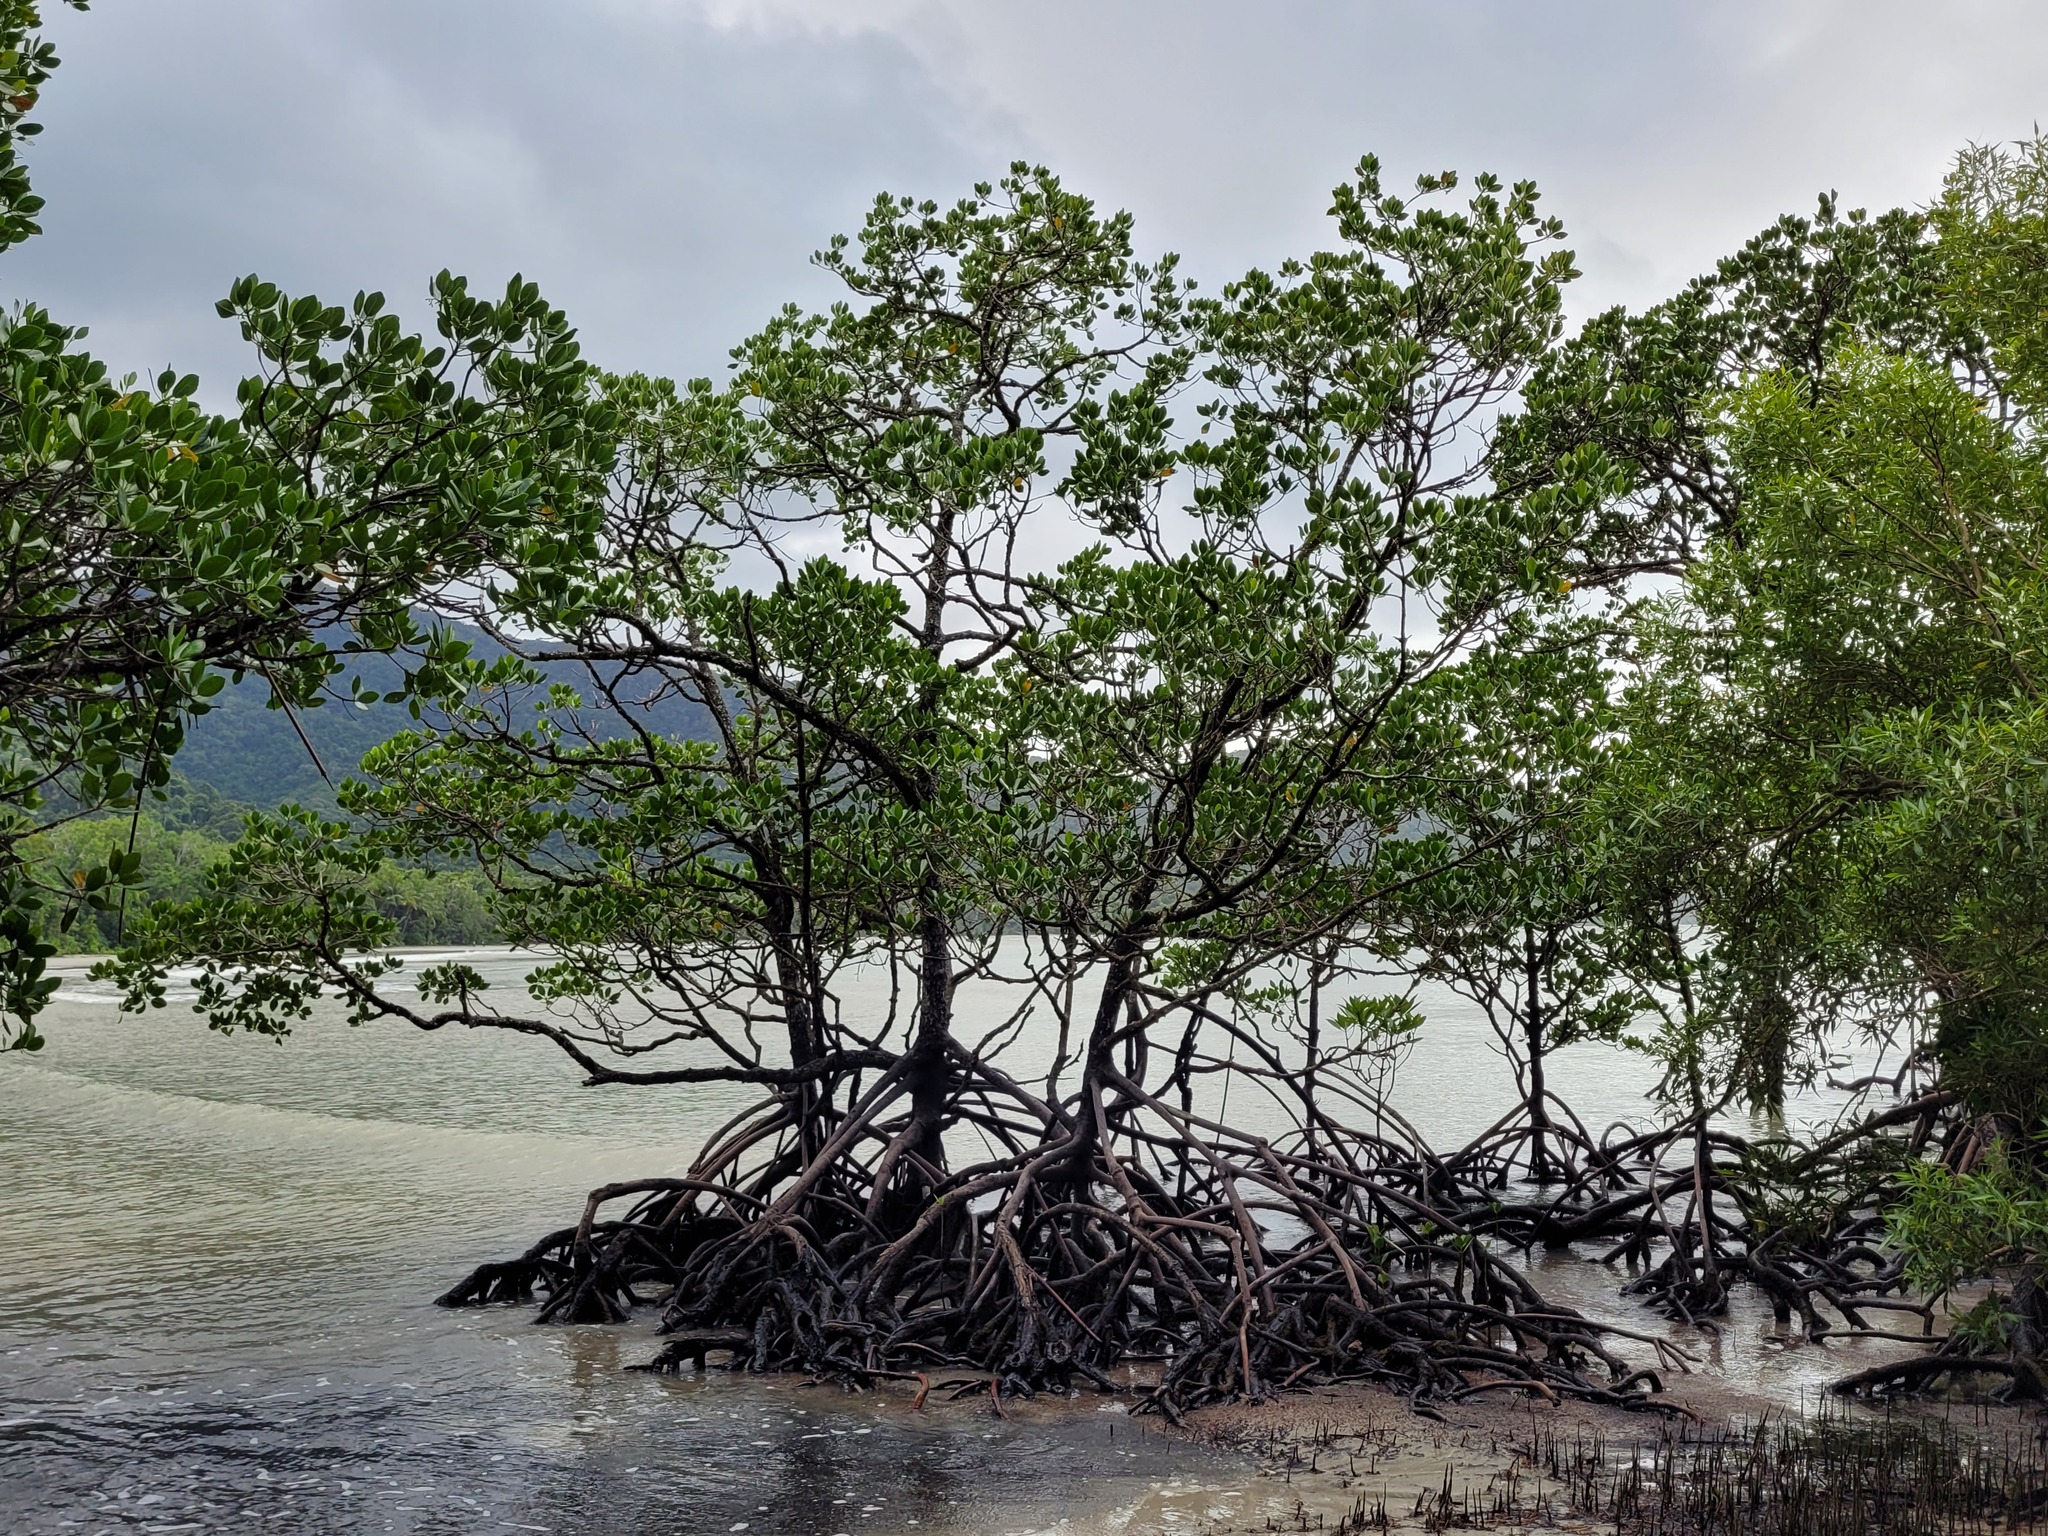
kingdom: Plantae
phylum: Tracheophyta
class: Magnoliopsida
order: Malpighiales
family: Rhizophoraceae
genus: Rhizophora
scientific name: Rhizophora stylosa
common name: Red mangrove
